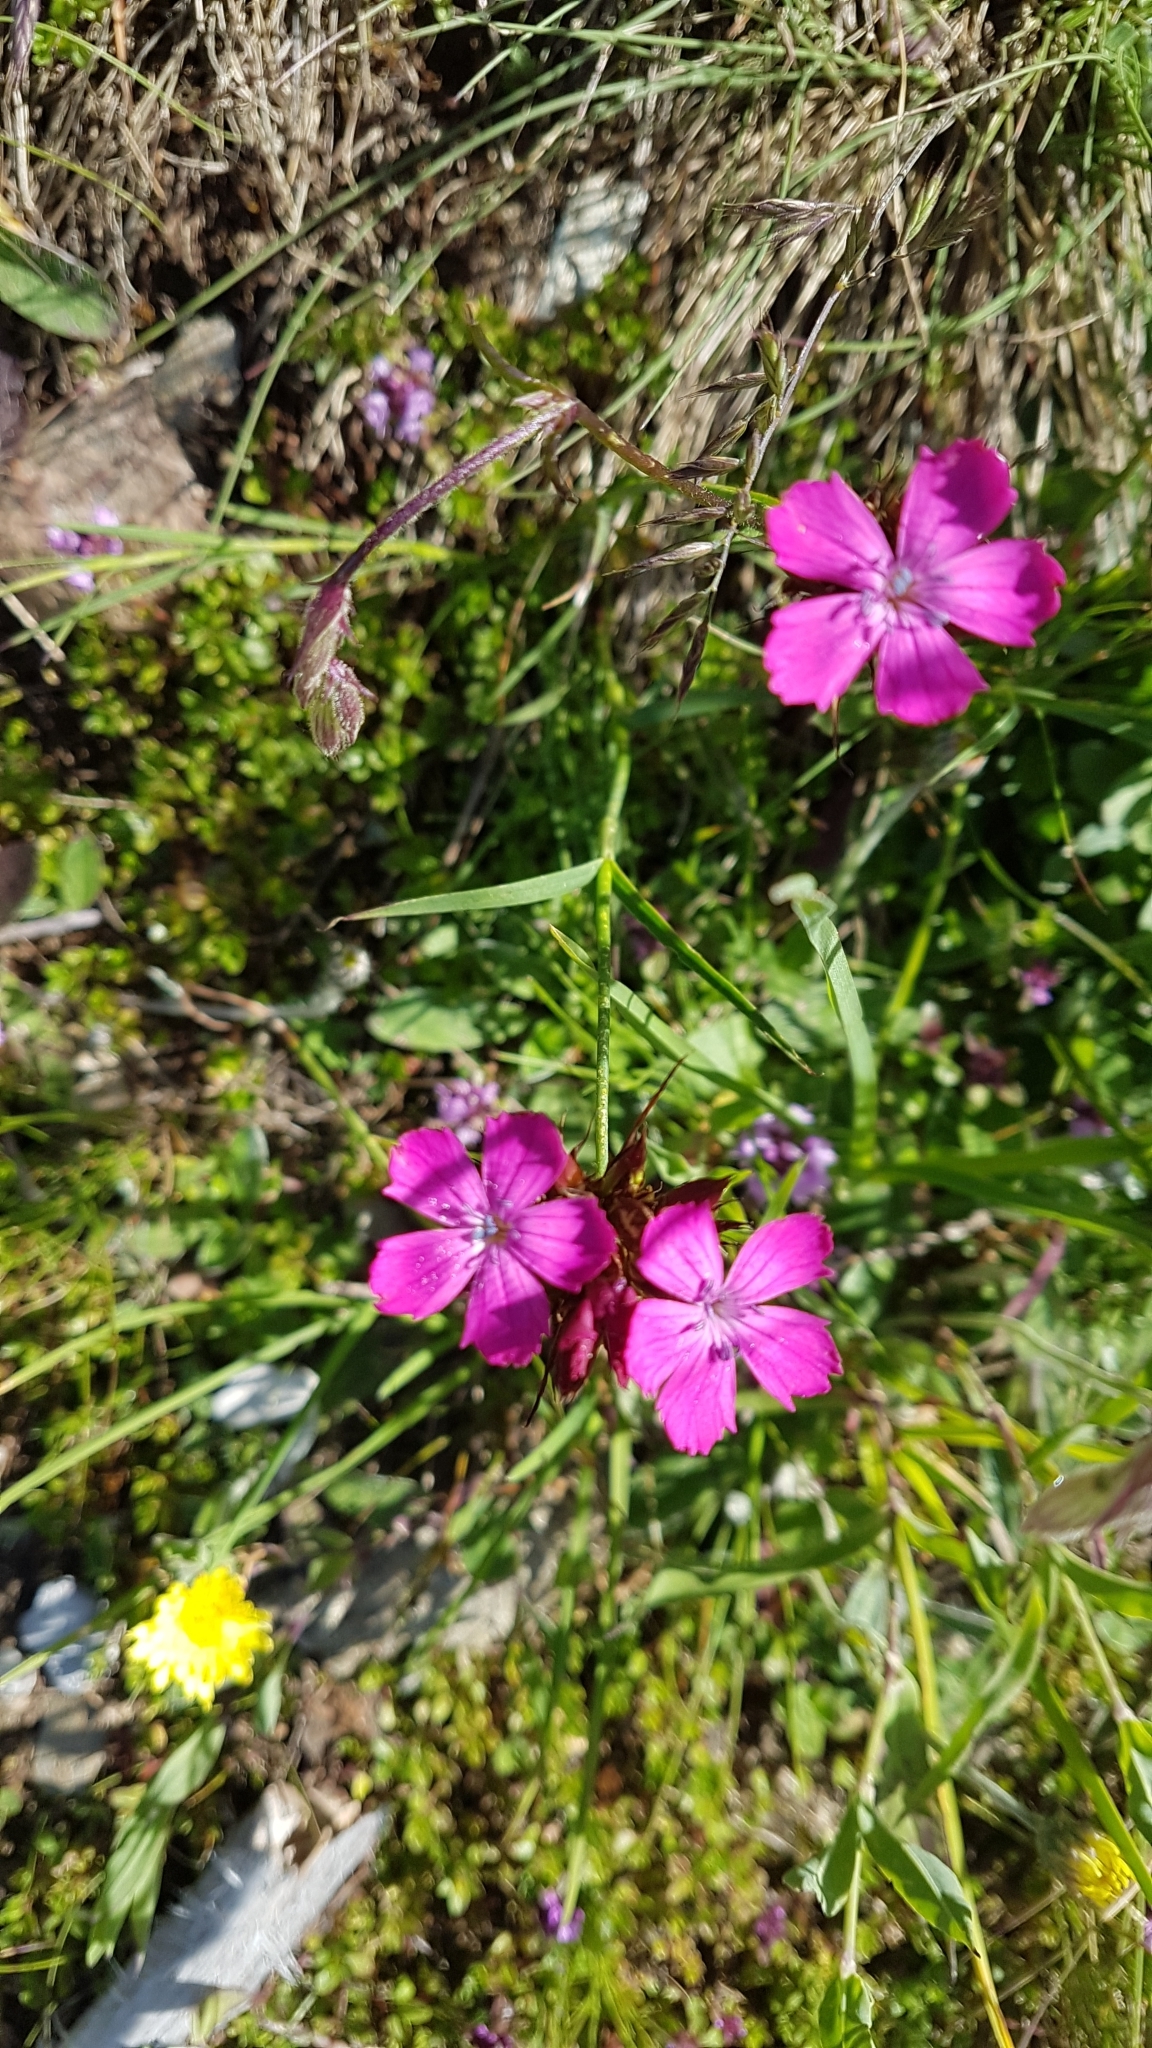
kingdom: Plantae
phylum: Tracheophyta
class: Magnoliopsida
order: Caryophyllales
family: Caryophyllaceae
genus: Dianthus
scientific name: Dianthus carthusianorum
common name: Carthusian pink
